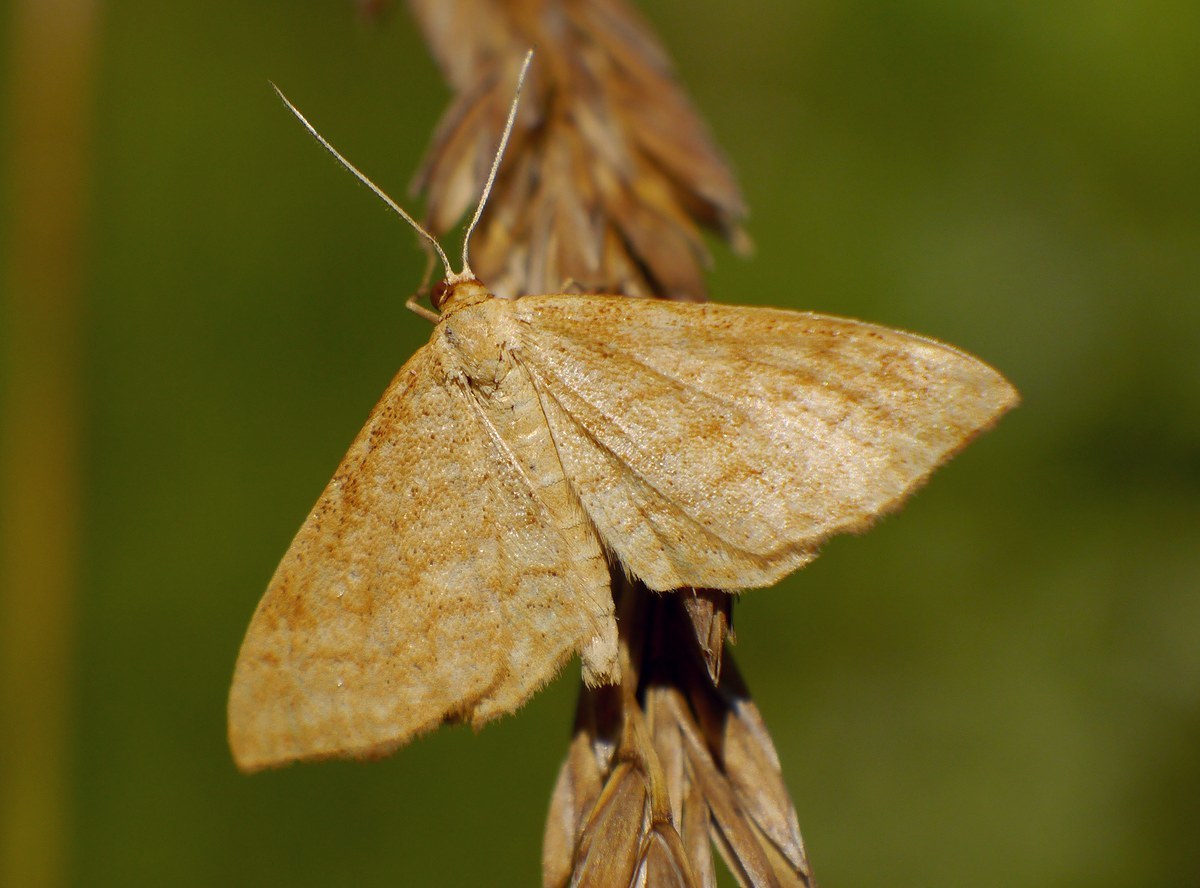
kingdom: Animalia
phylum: Arthropoda
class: Insecta
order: Lepidoptera
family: Geometridae
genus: Idaea
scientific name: Idaea ochrata
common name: Bright wave
